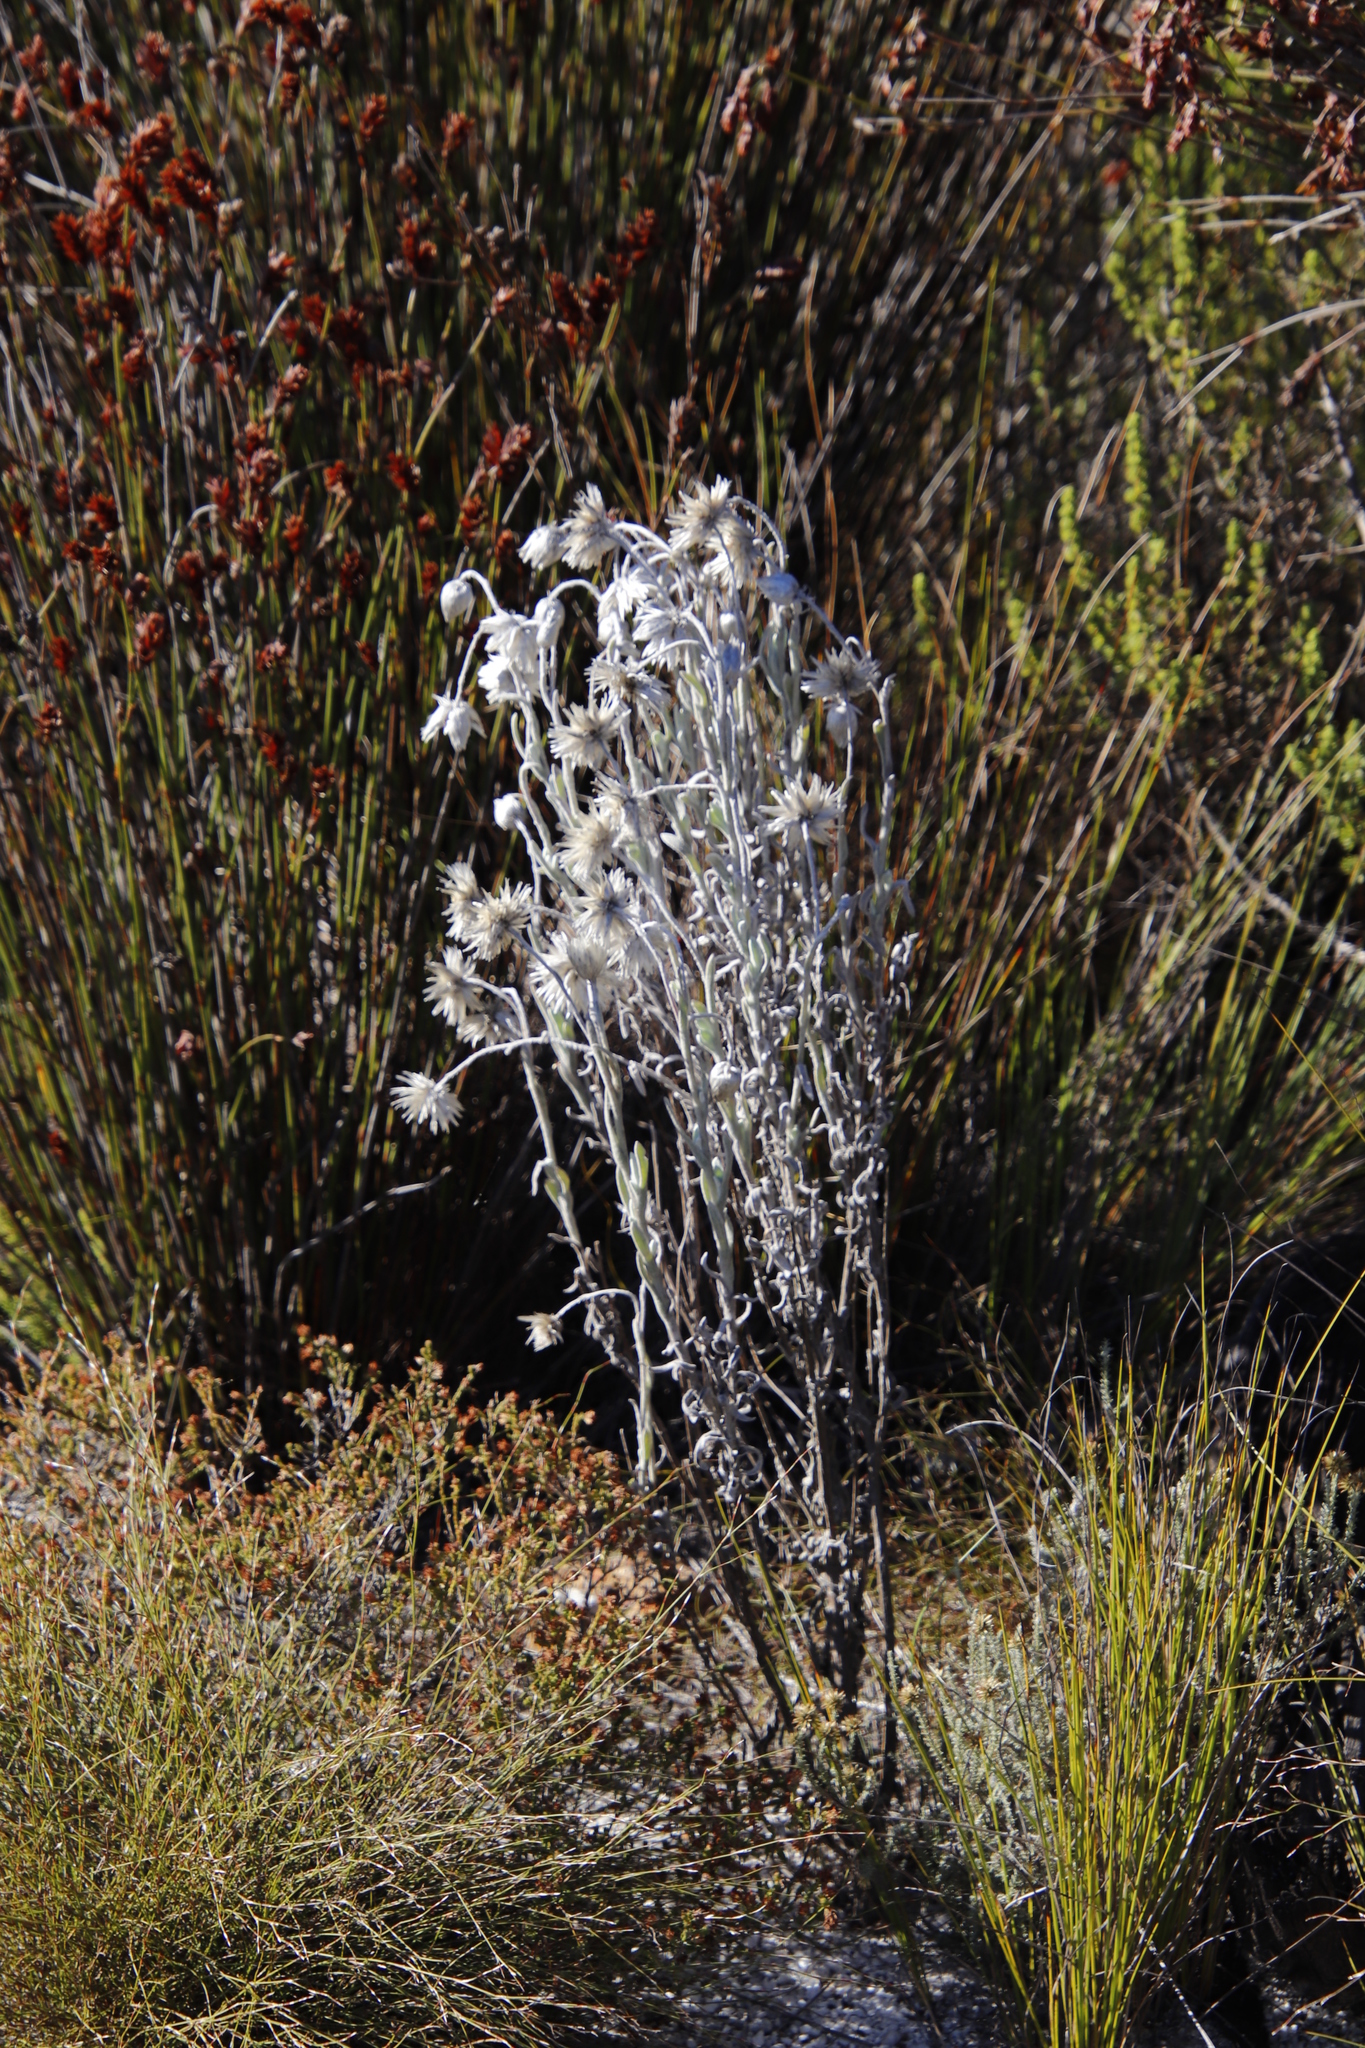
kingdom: Plantae
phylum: Tracheophyta
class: Magnoliopsida
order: Asterales
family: Asteraceae
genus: Syncarpha
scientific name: Syncarpha vestita
